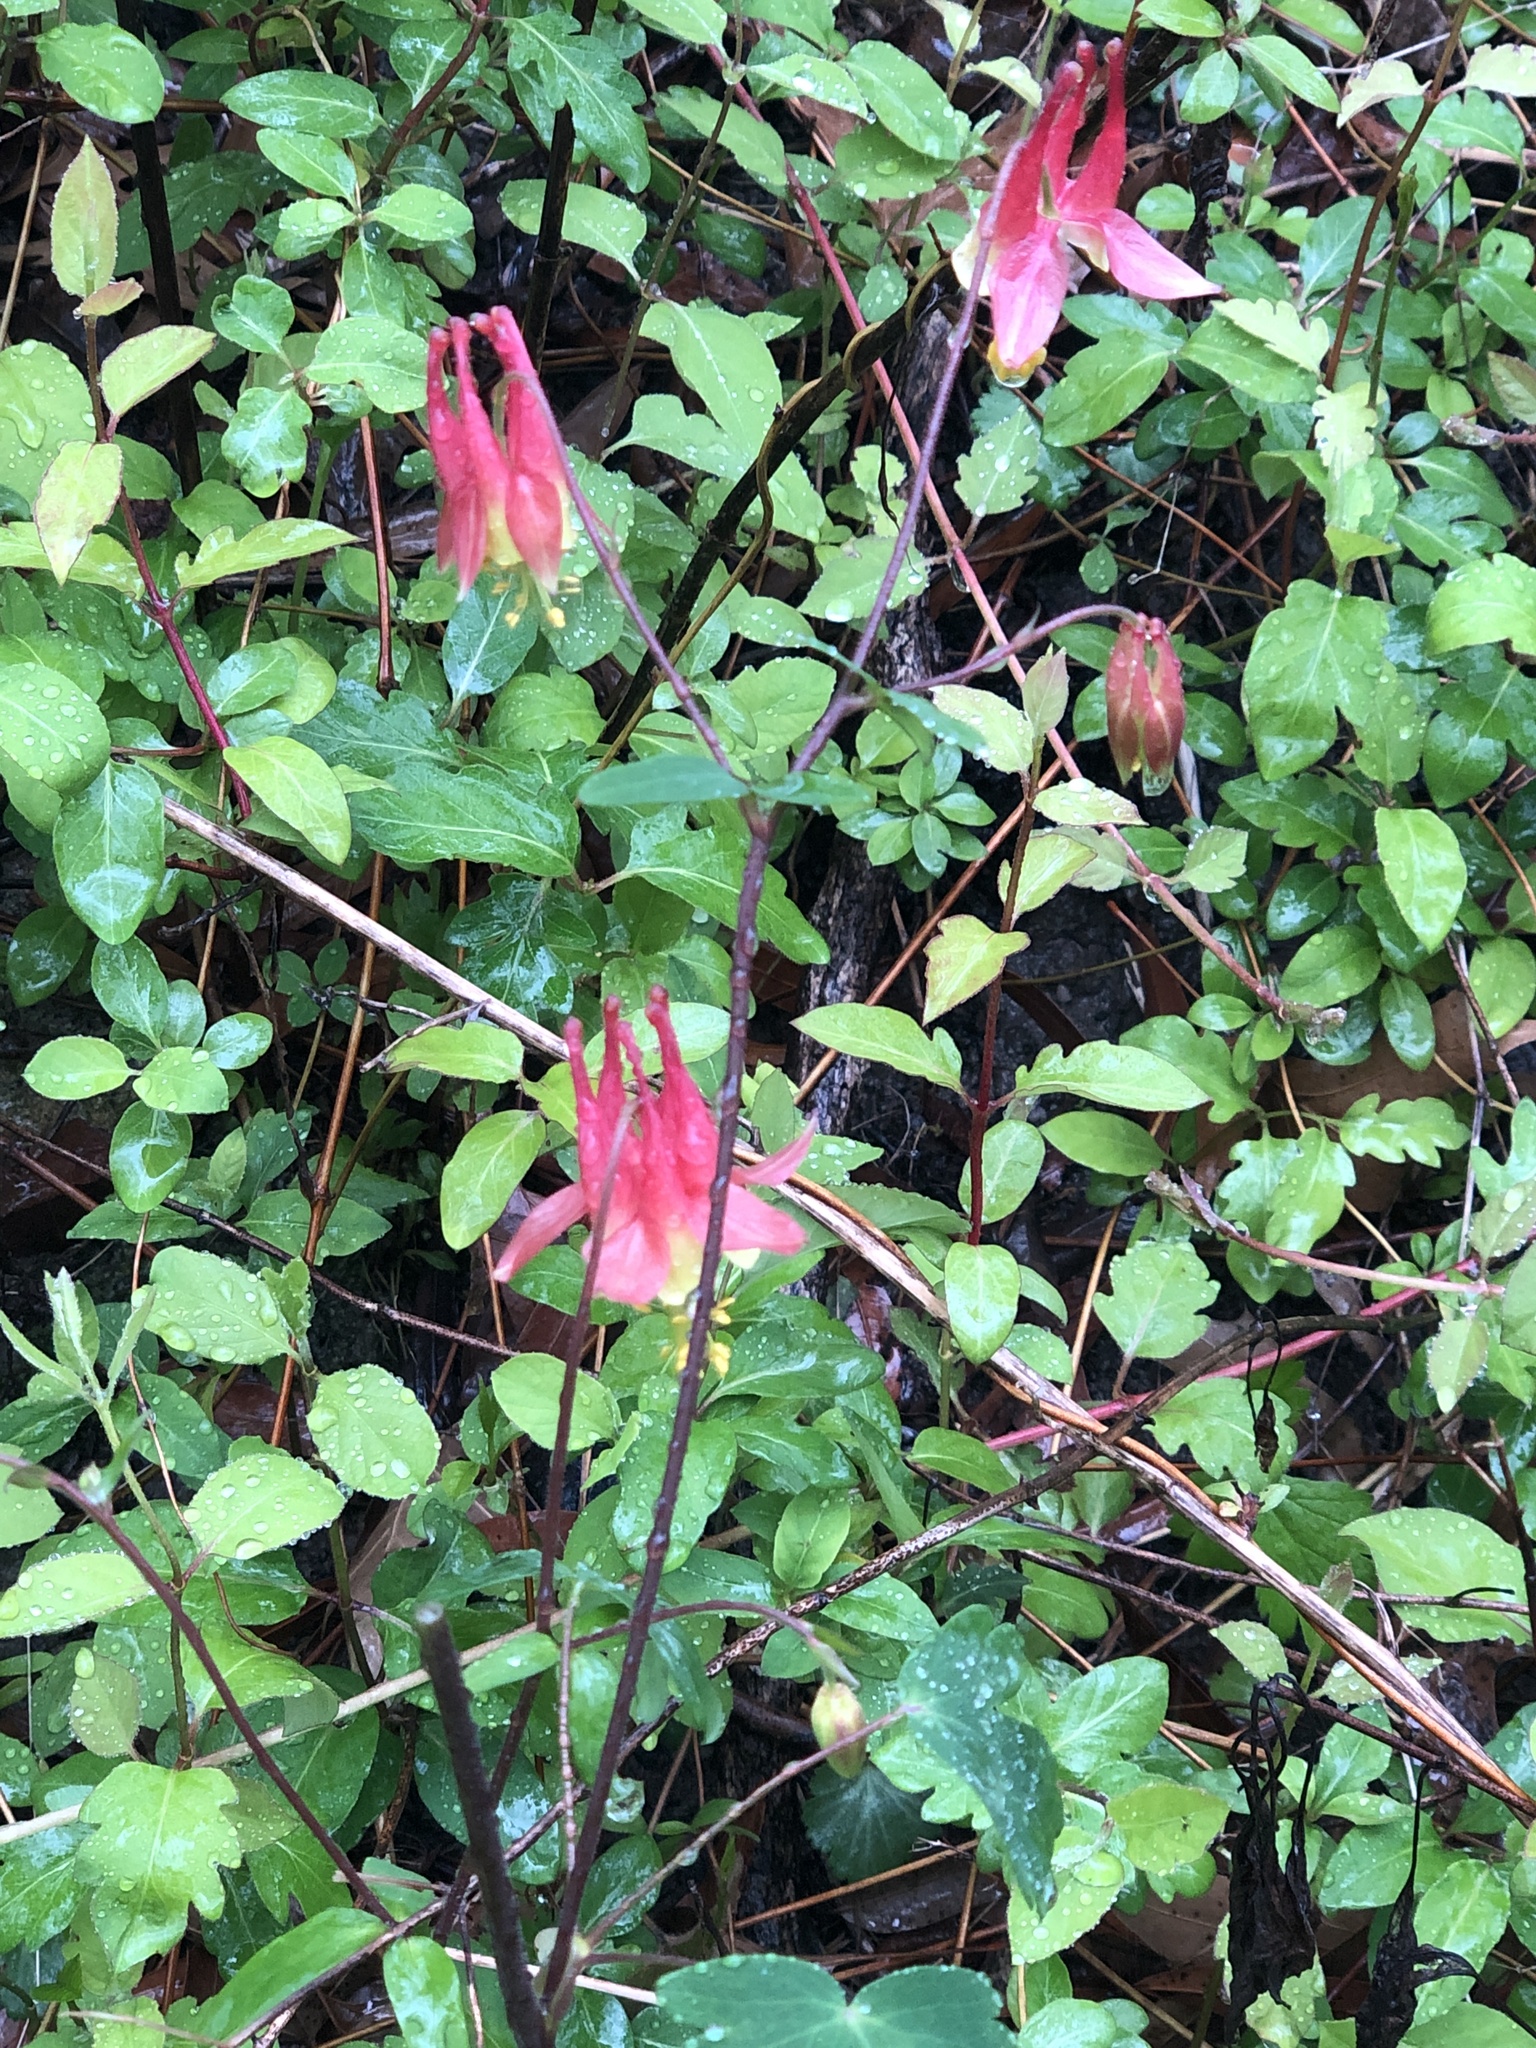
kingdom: Plantae
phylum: Tracheophyta
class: Magnoliopsida
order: Ranunculales
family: Ranunculaceae
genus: Aquilegia
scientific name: Aquilegia canadensis
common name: American columbine
